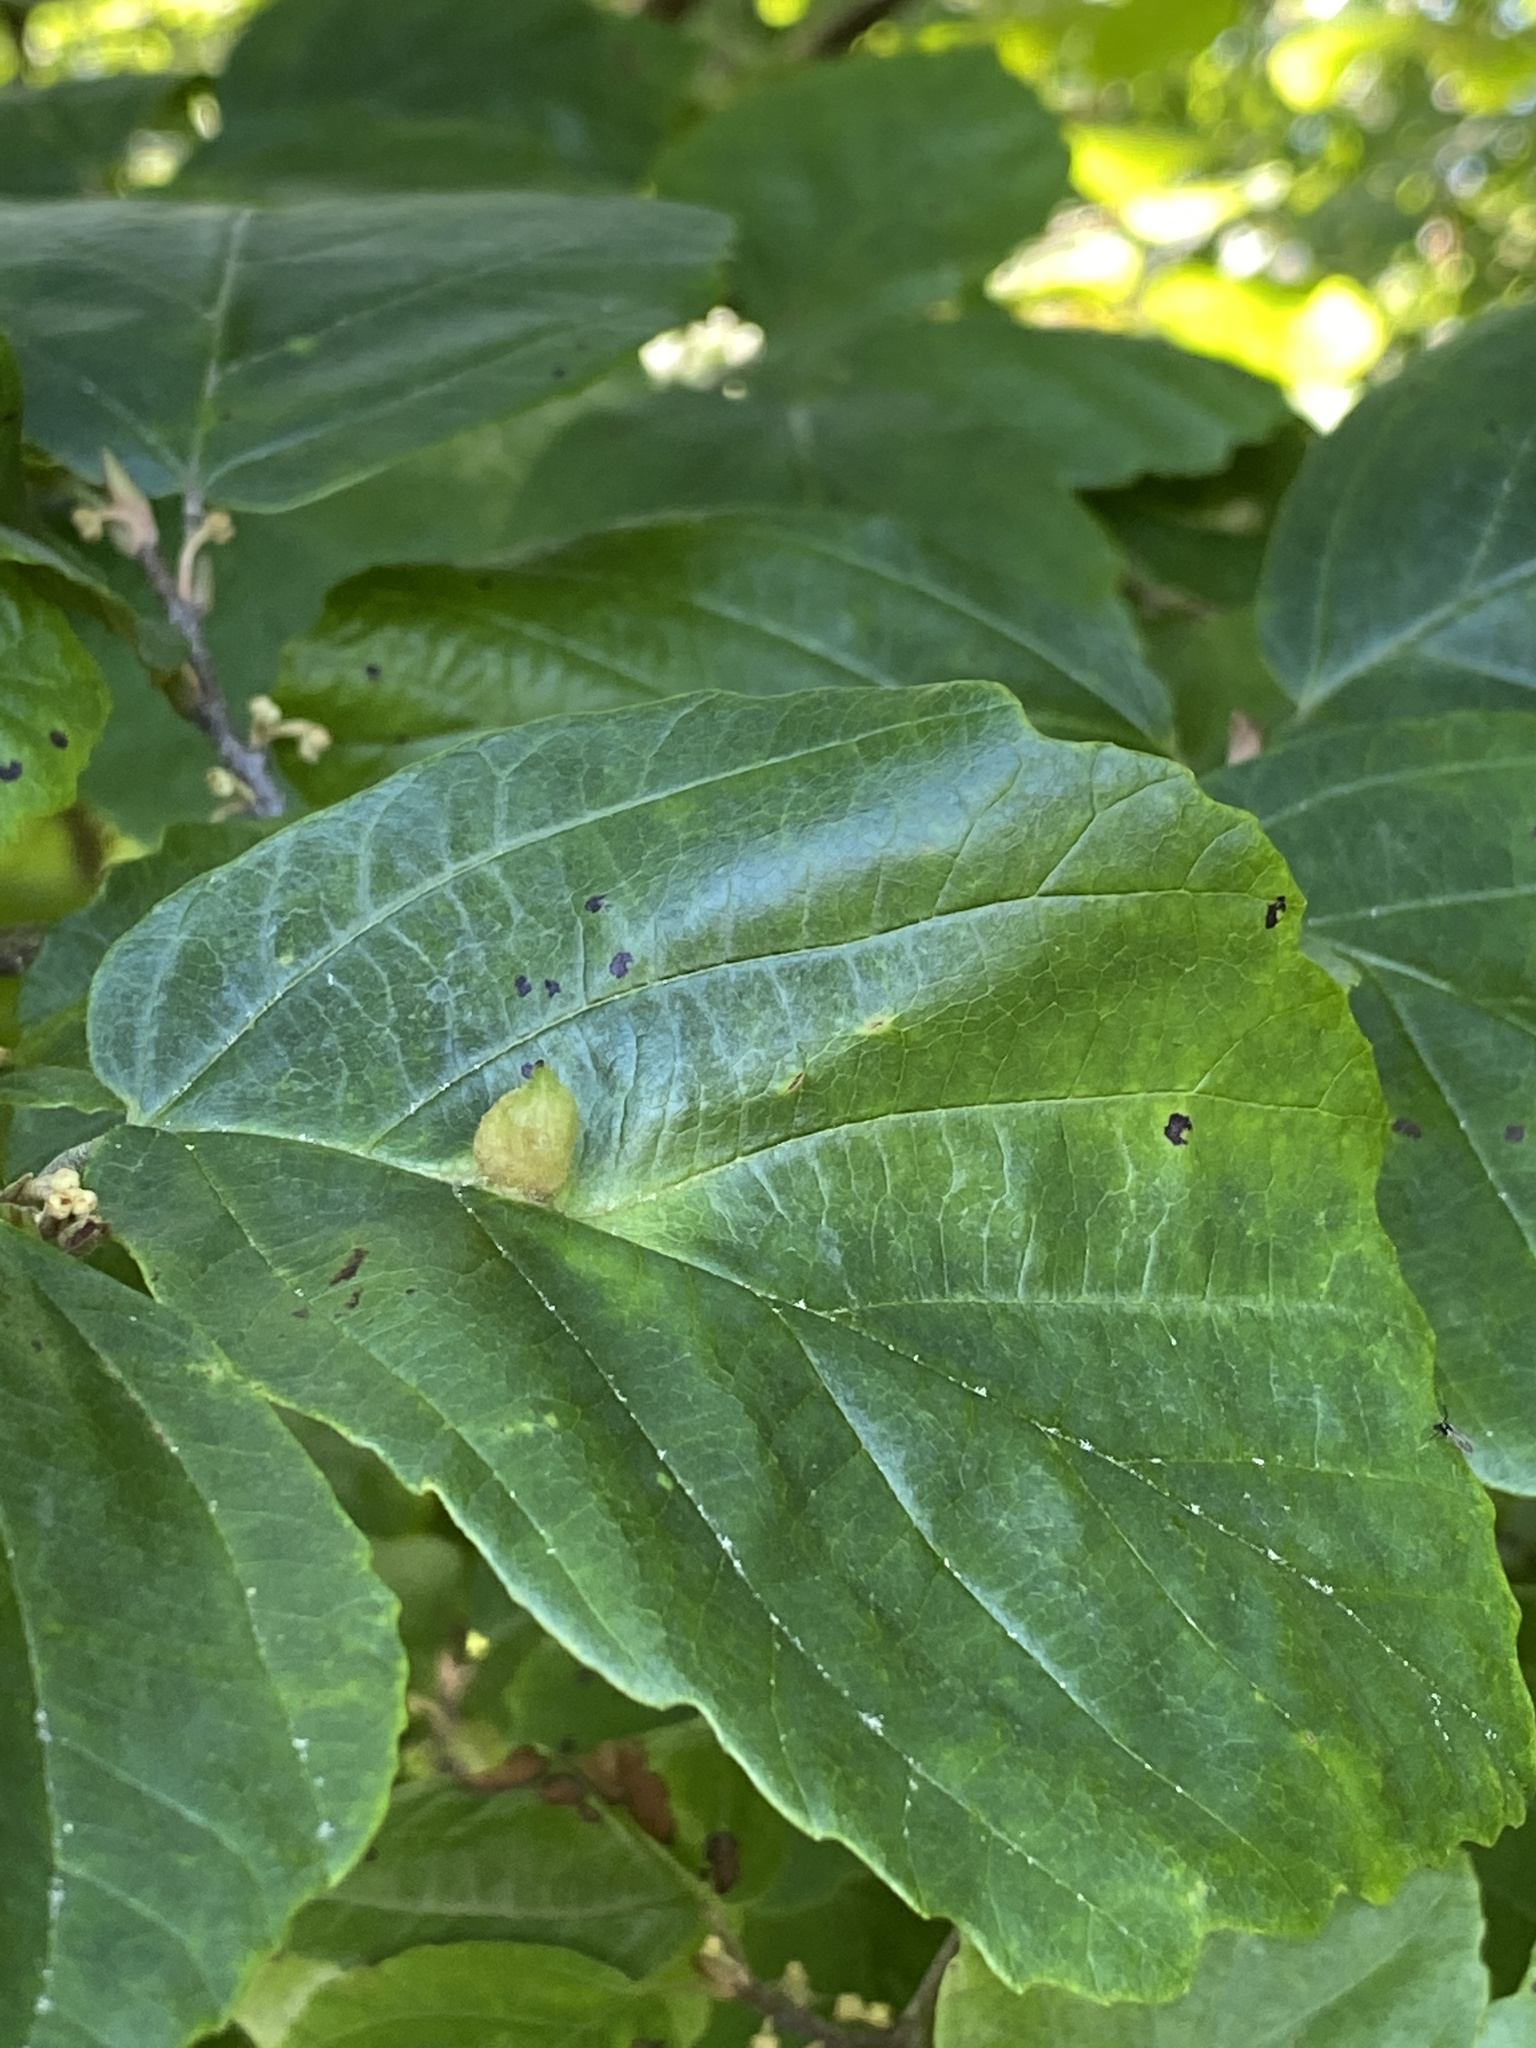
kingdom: Animalia
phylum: Arthropoda
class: Insecta
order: Hemiptera
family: Aphididae
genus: Hormaphis
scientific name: Hormaphis hamamelidis
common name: Witch-hazel cone gall aphid
